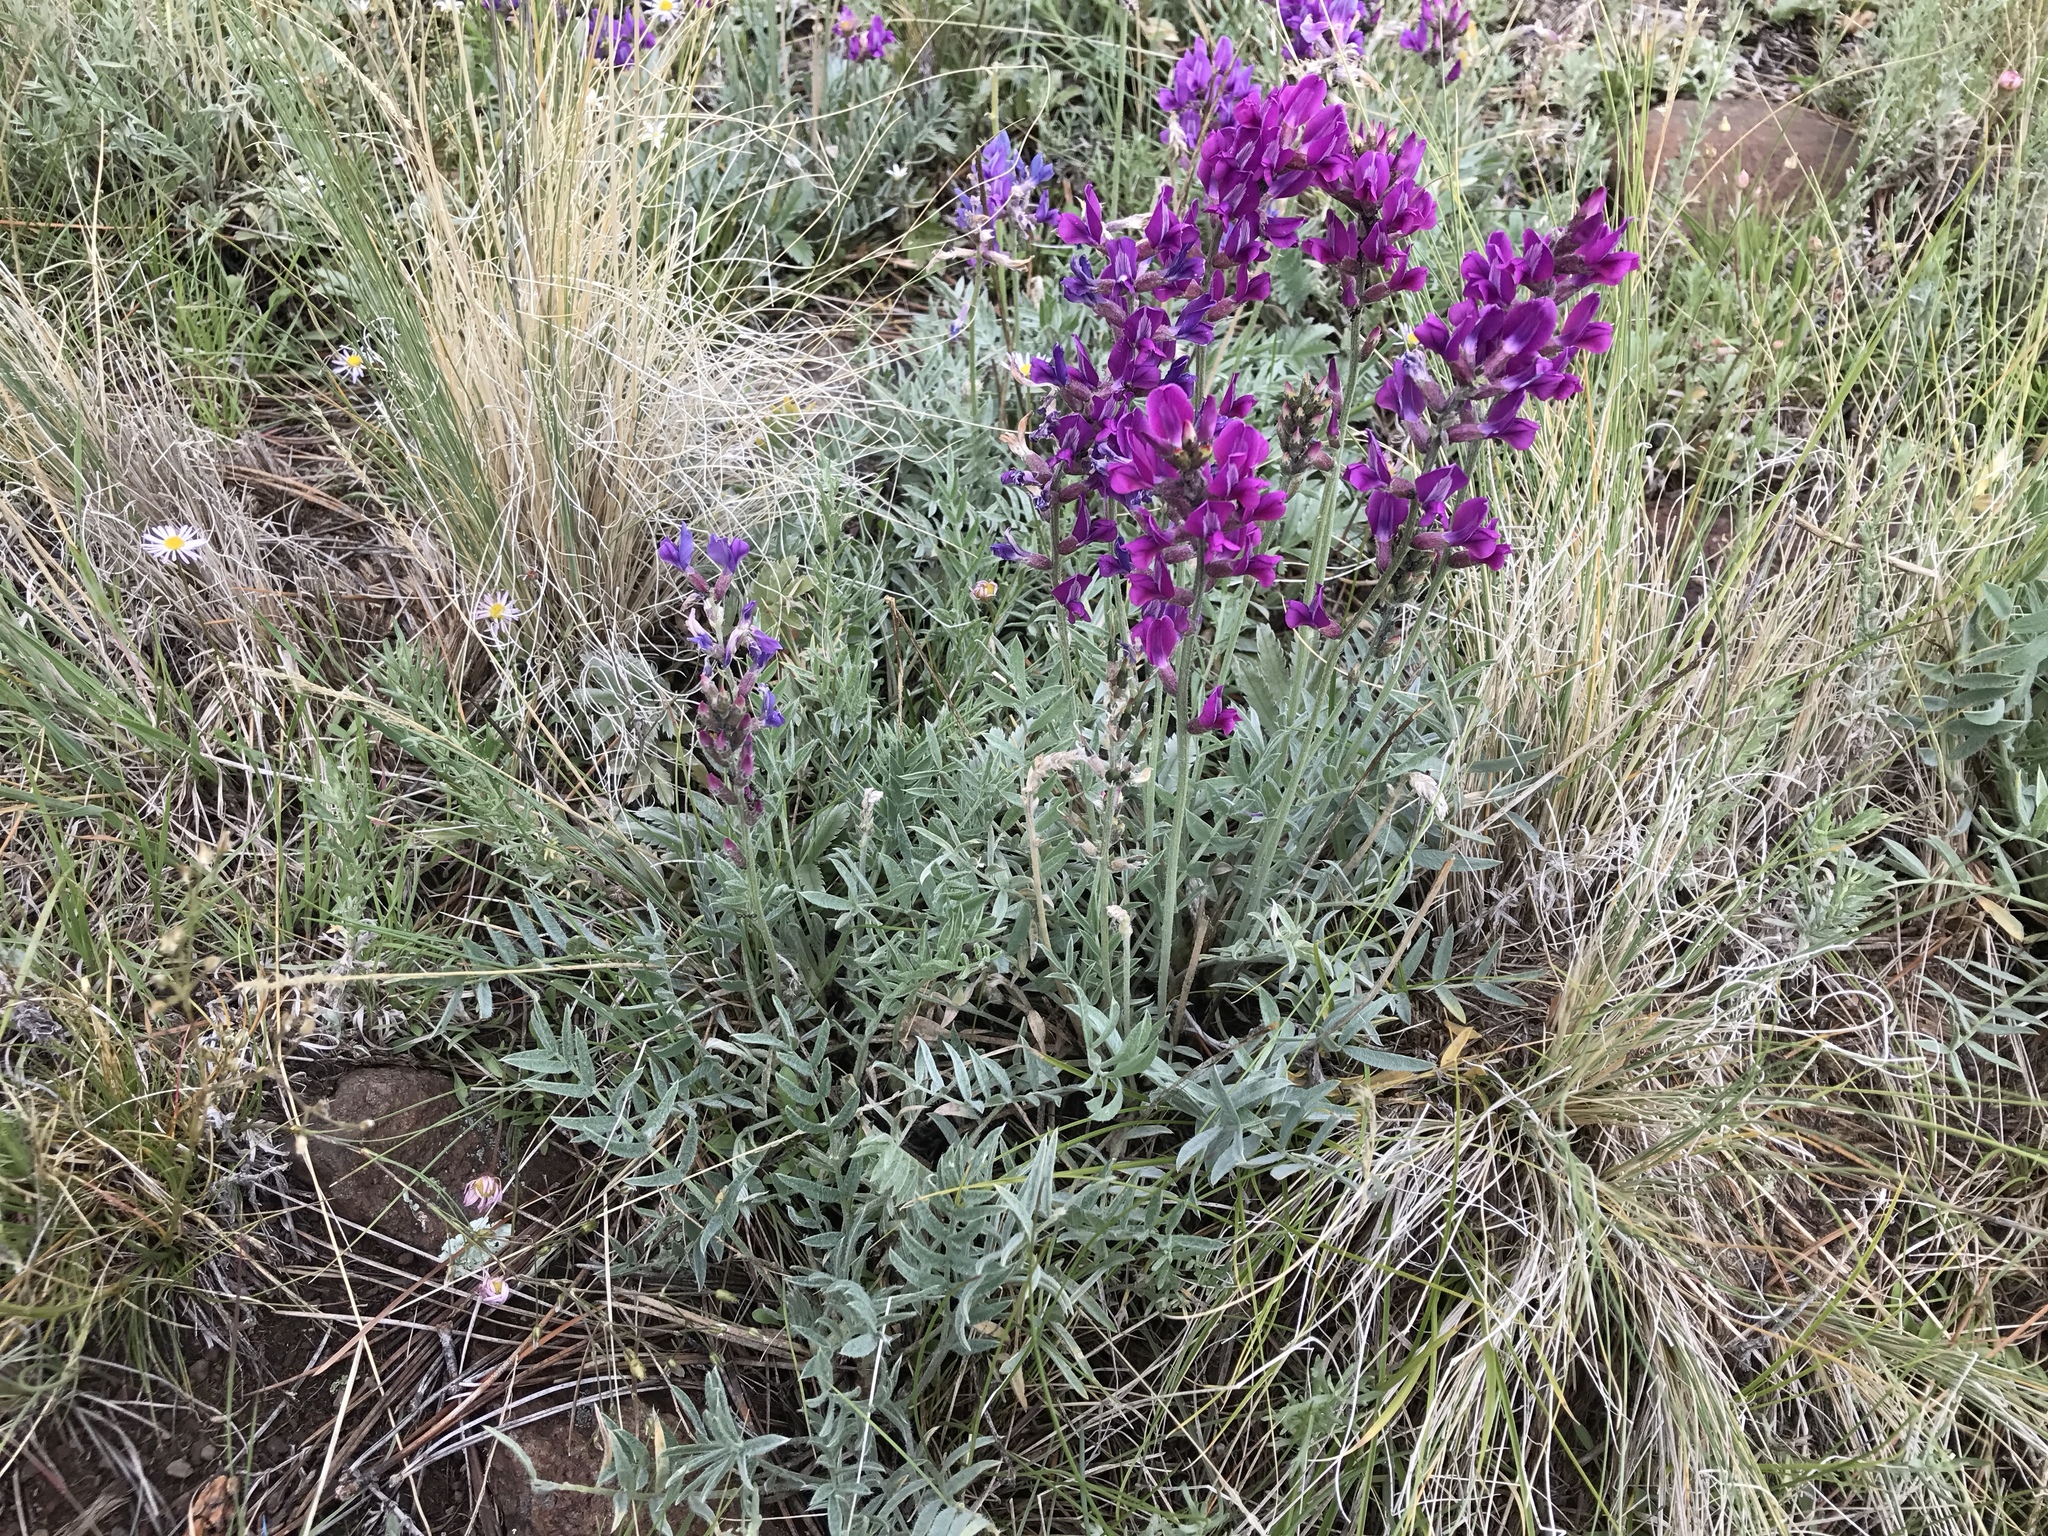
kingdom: Plantae
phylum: Tracheophyta
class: Magnoliopsida
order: Fabales
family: Fabaceae
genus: Oxytropis
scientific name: Oxytropis lambertii
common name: Purple locoweed
